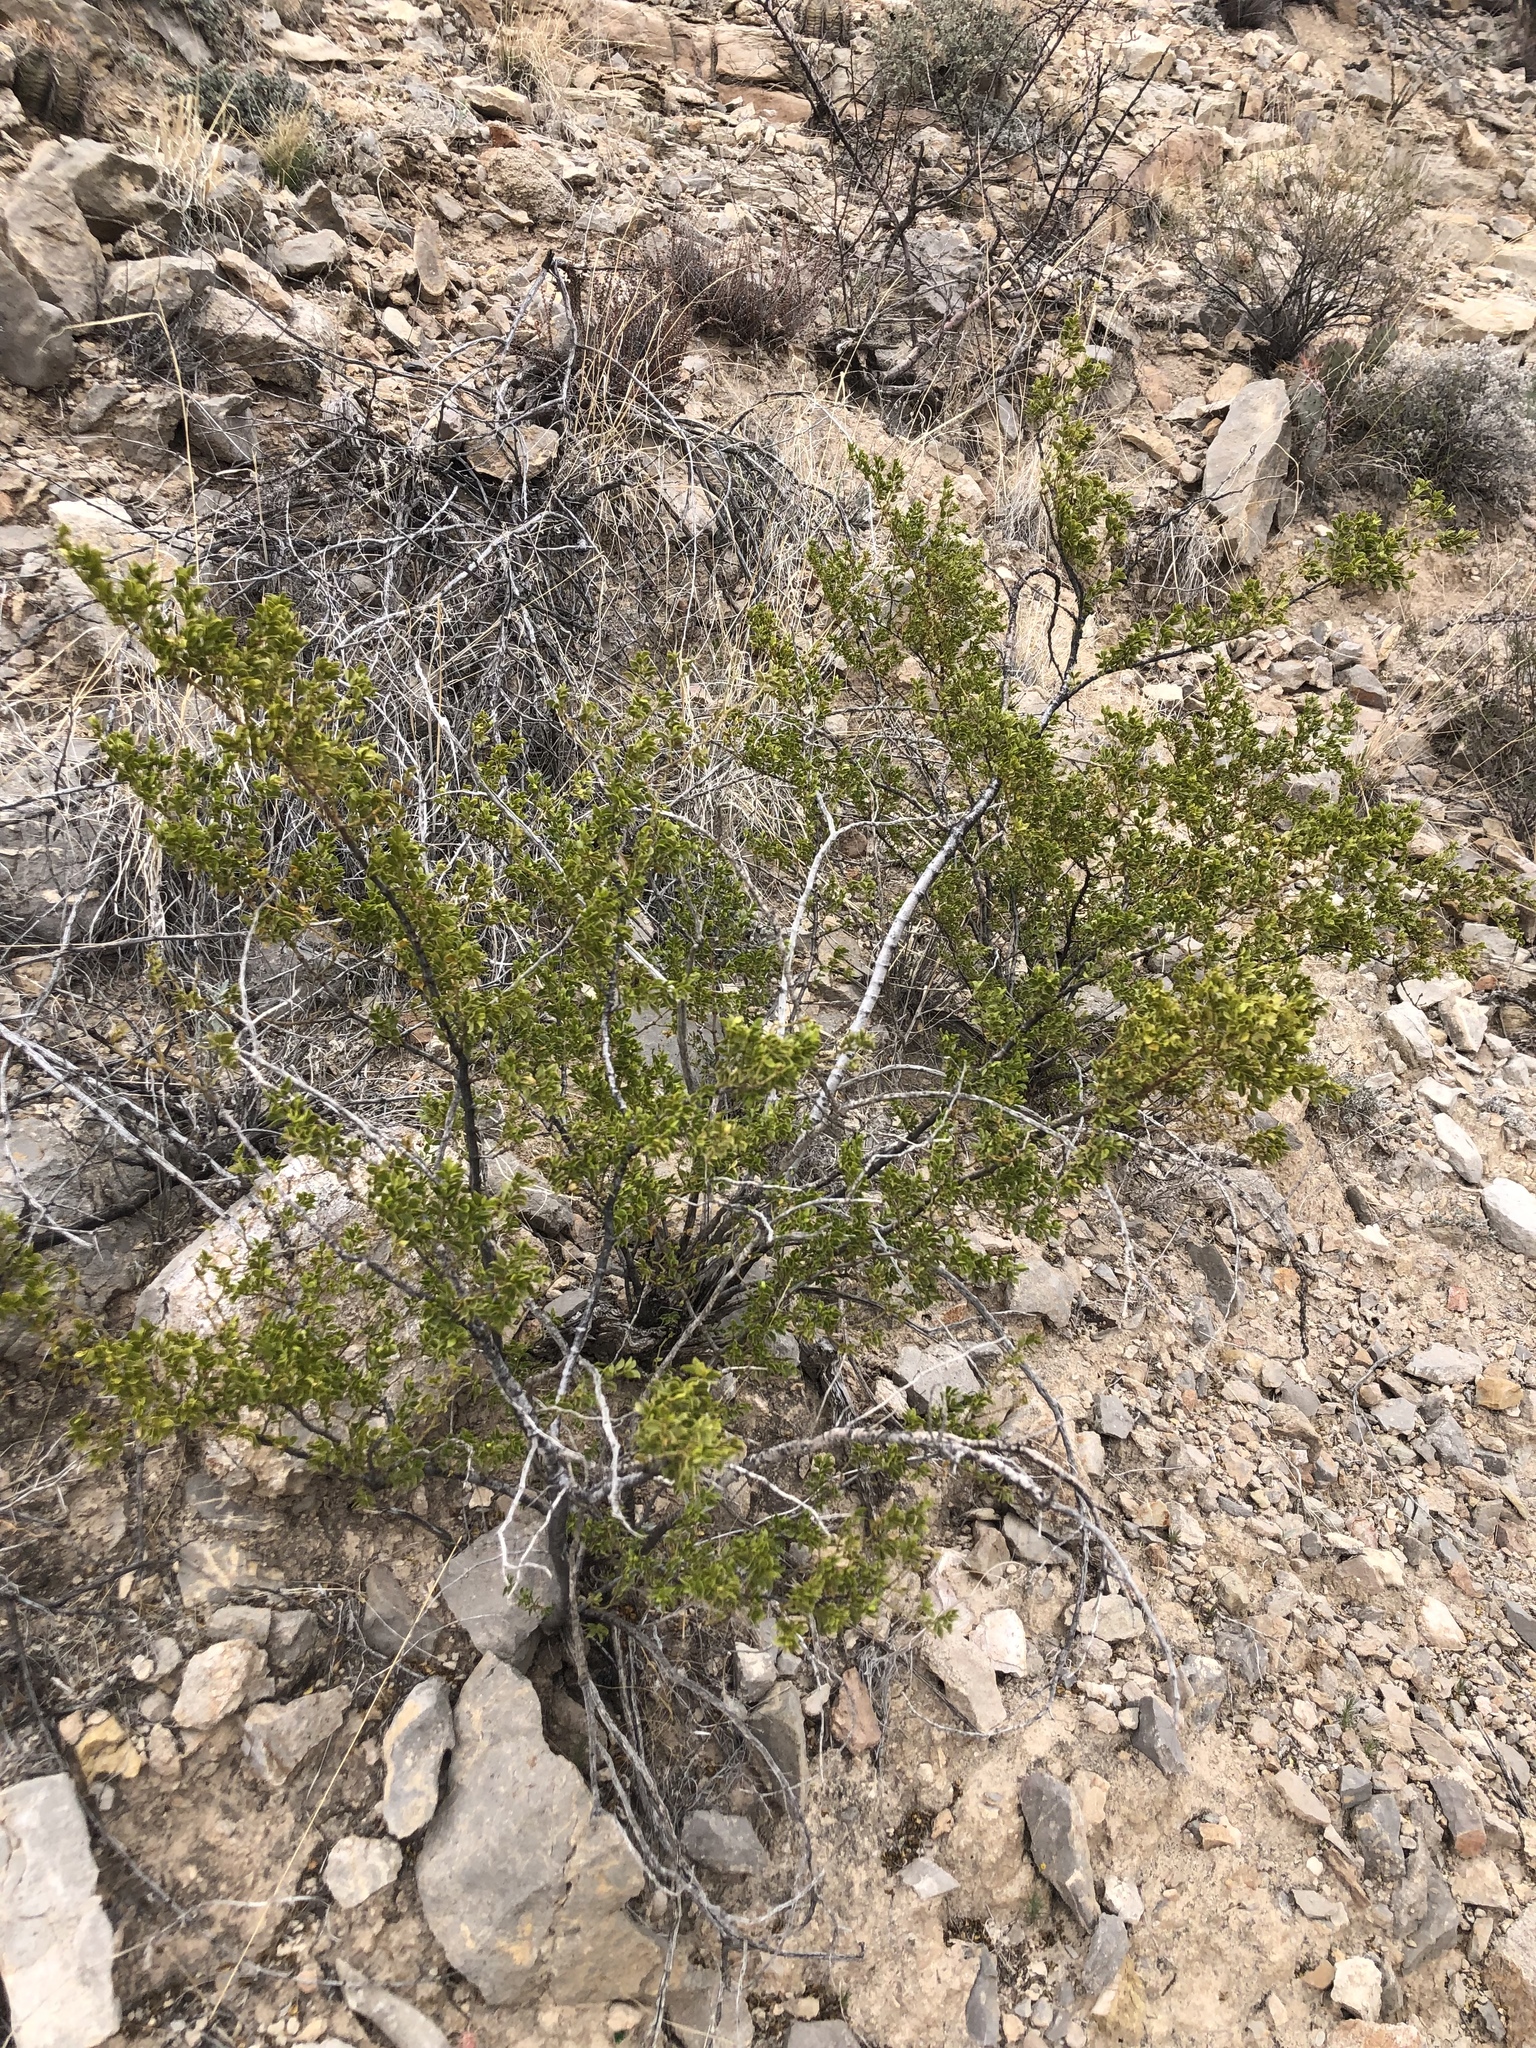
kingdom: Plantae
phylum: Tracheophyta
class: Magnoliopsida
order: Zygophyllales
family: Zygophyllaceae
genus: Larrea
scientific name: Larrea tridentata
